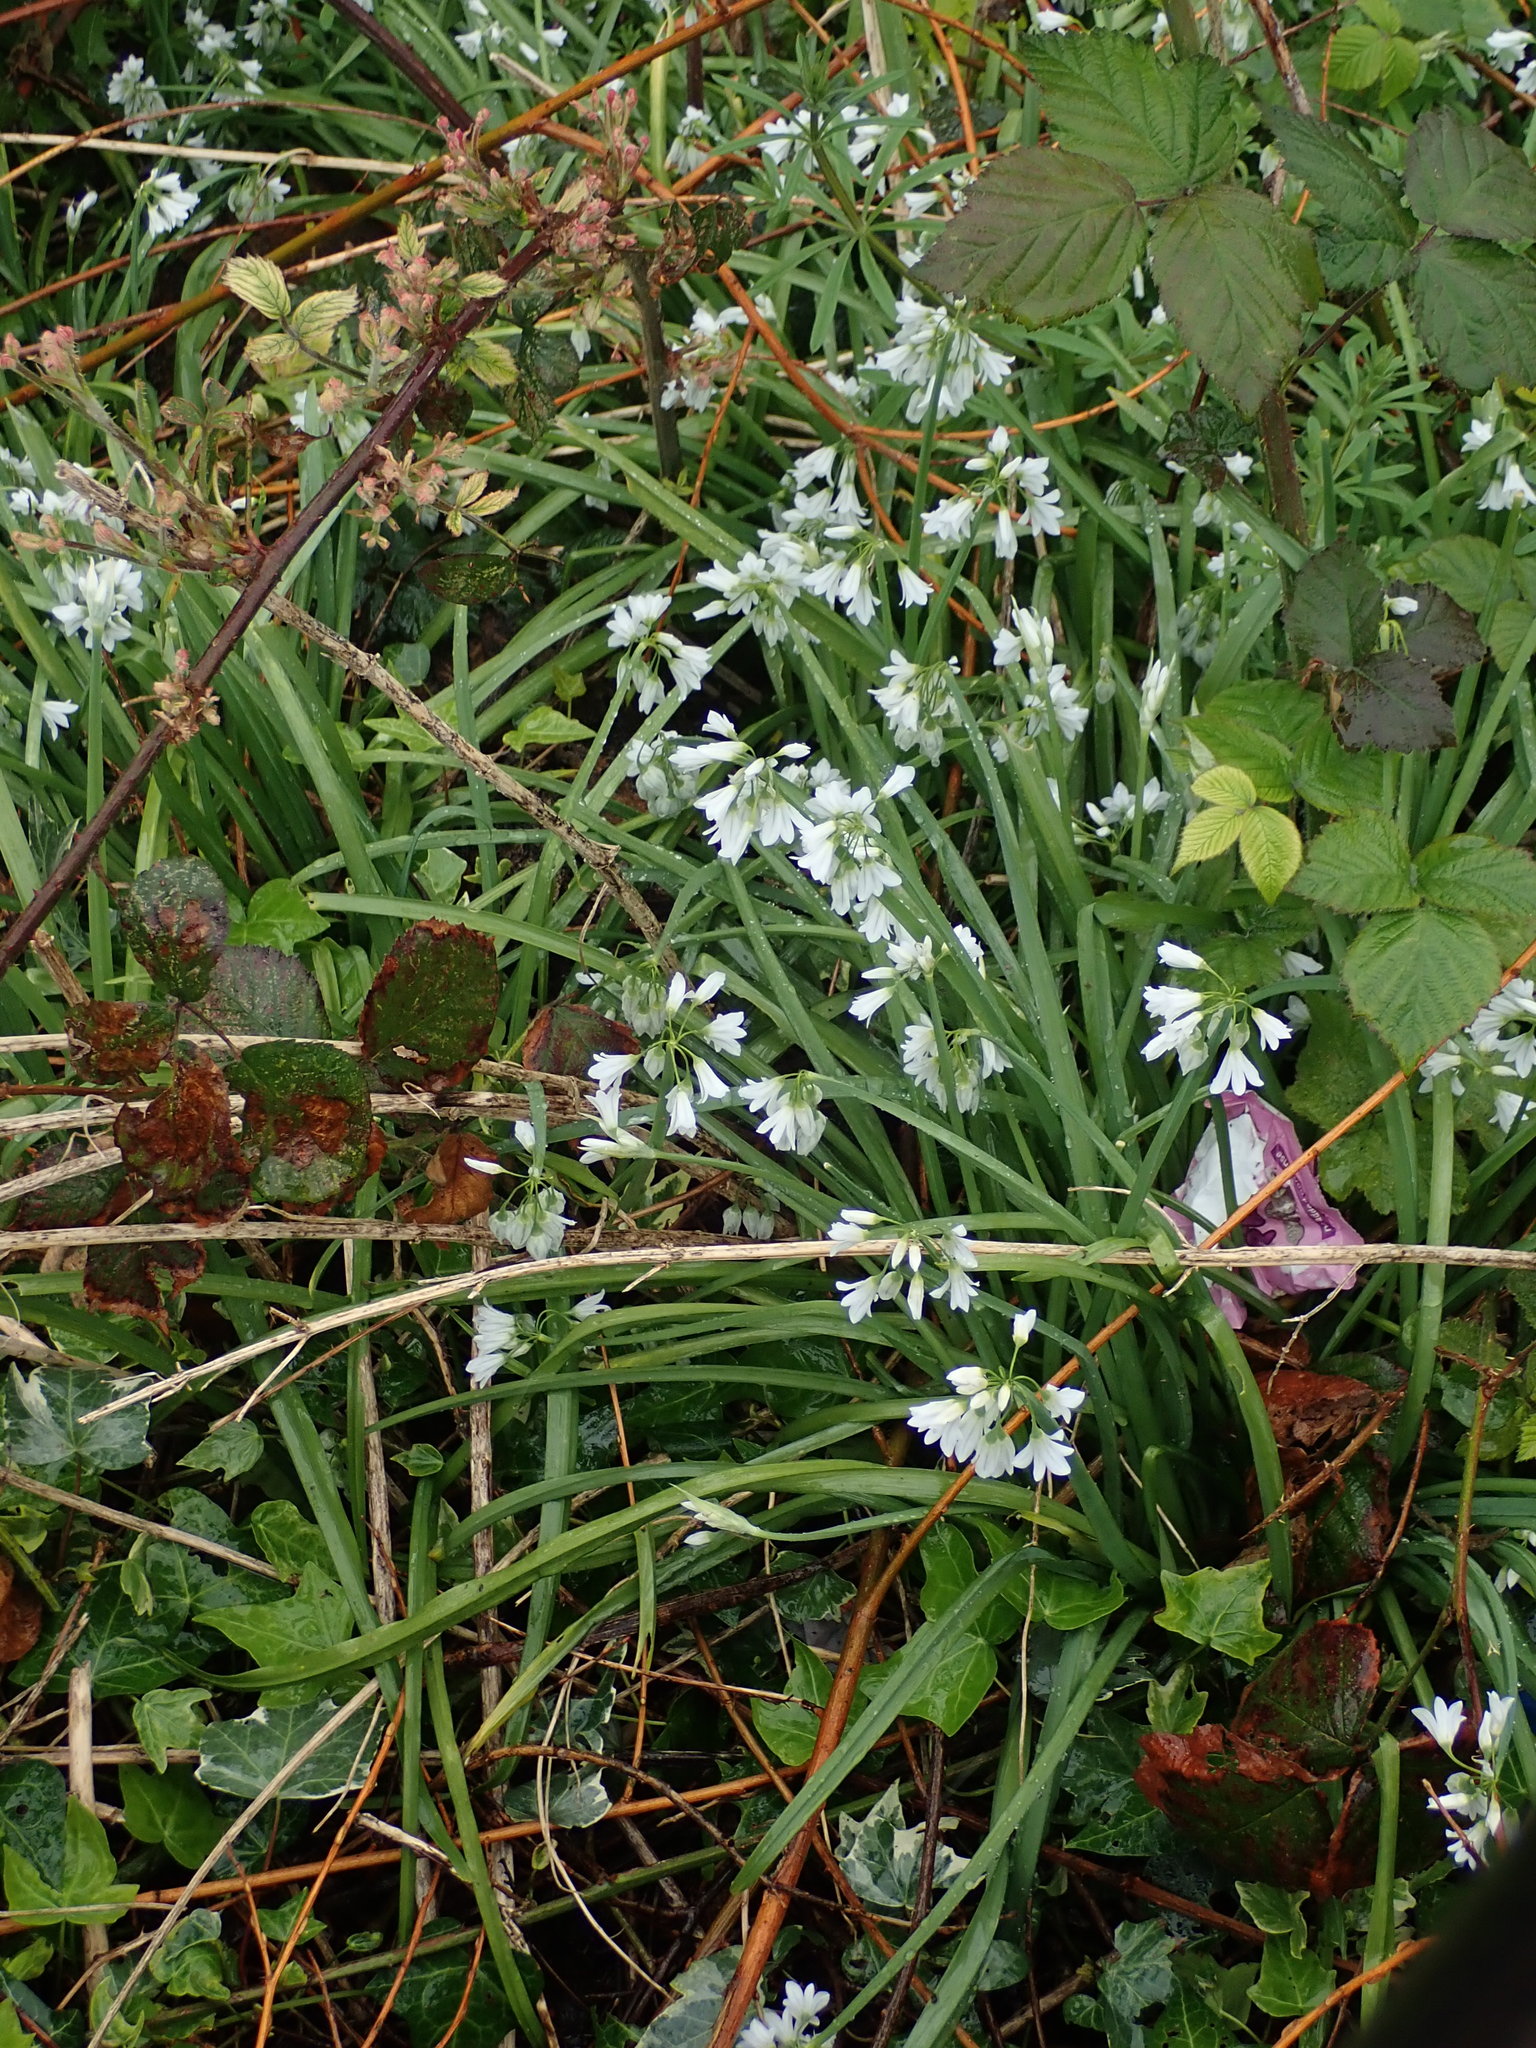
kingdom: Plantae
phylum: Tracheophyta
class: Liliopsida
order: Asparagales
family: Amaryllidaceae
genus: Allium
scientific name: Allium triquetrum
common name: Three-cornered garlic
